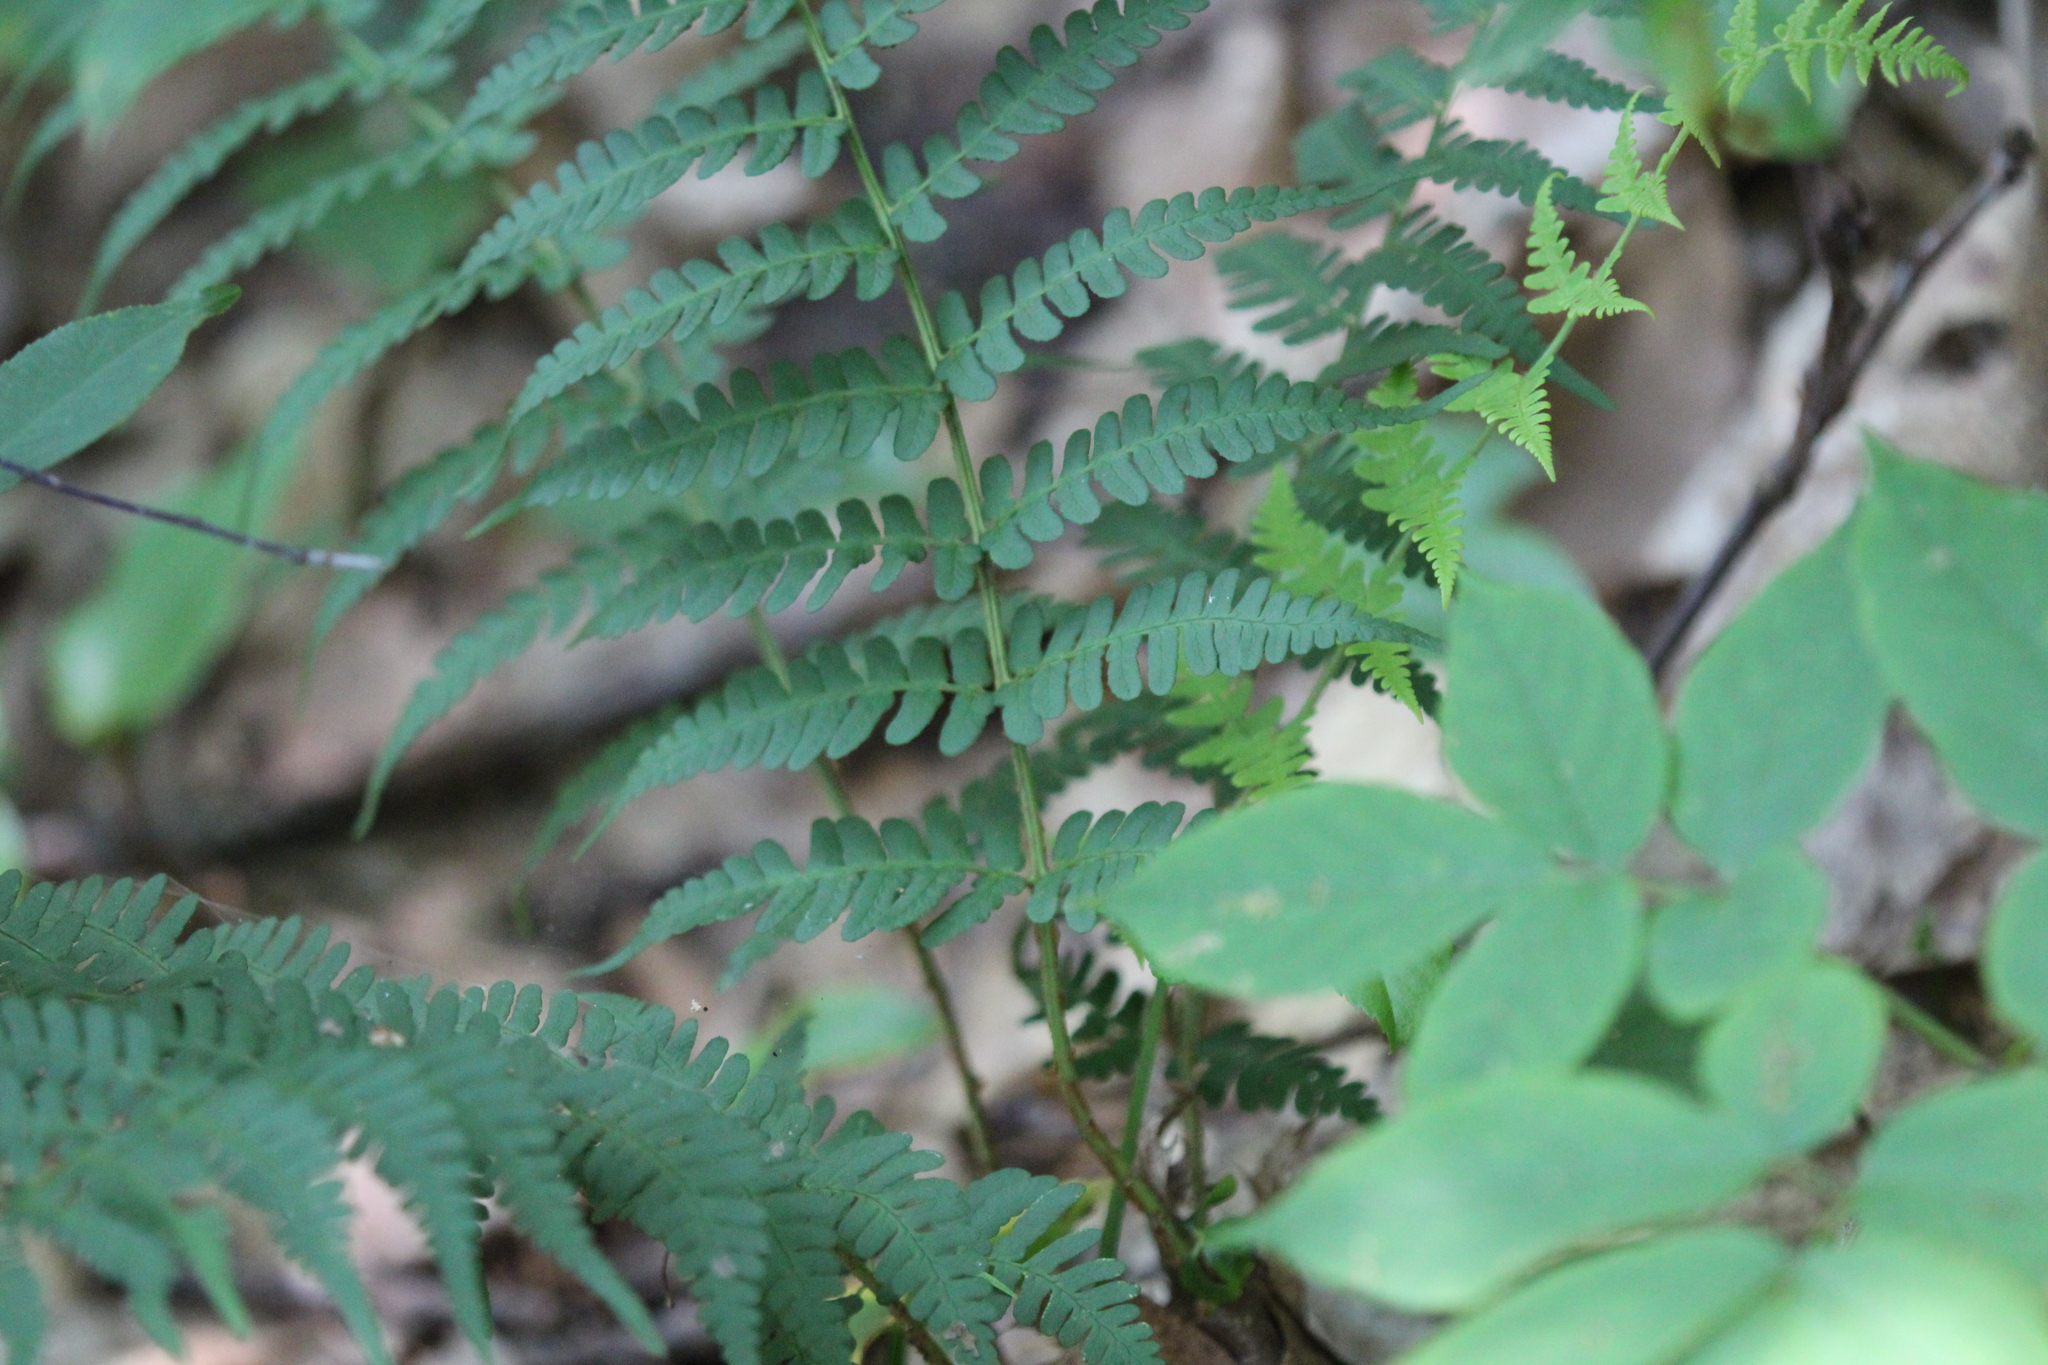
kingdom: Plantae
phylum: Tracheophyta
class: Polypodiopsida
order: Polypodiales
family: Dryopteridaceae
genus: Dryopteris
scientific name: Dryopteris marginalis
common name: Marginal wood fern
